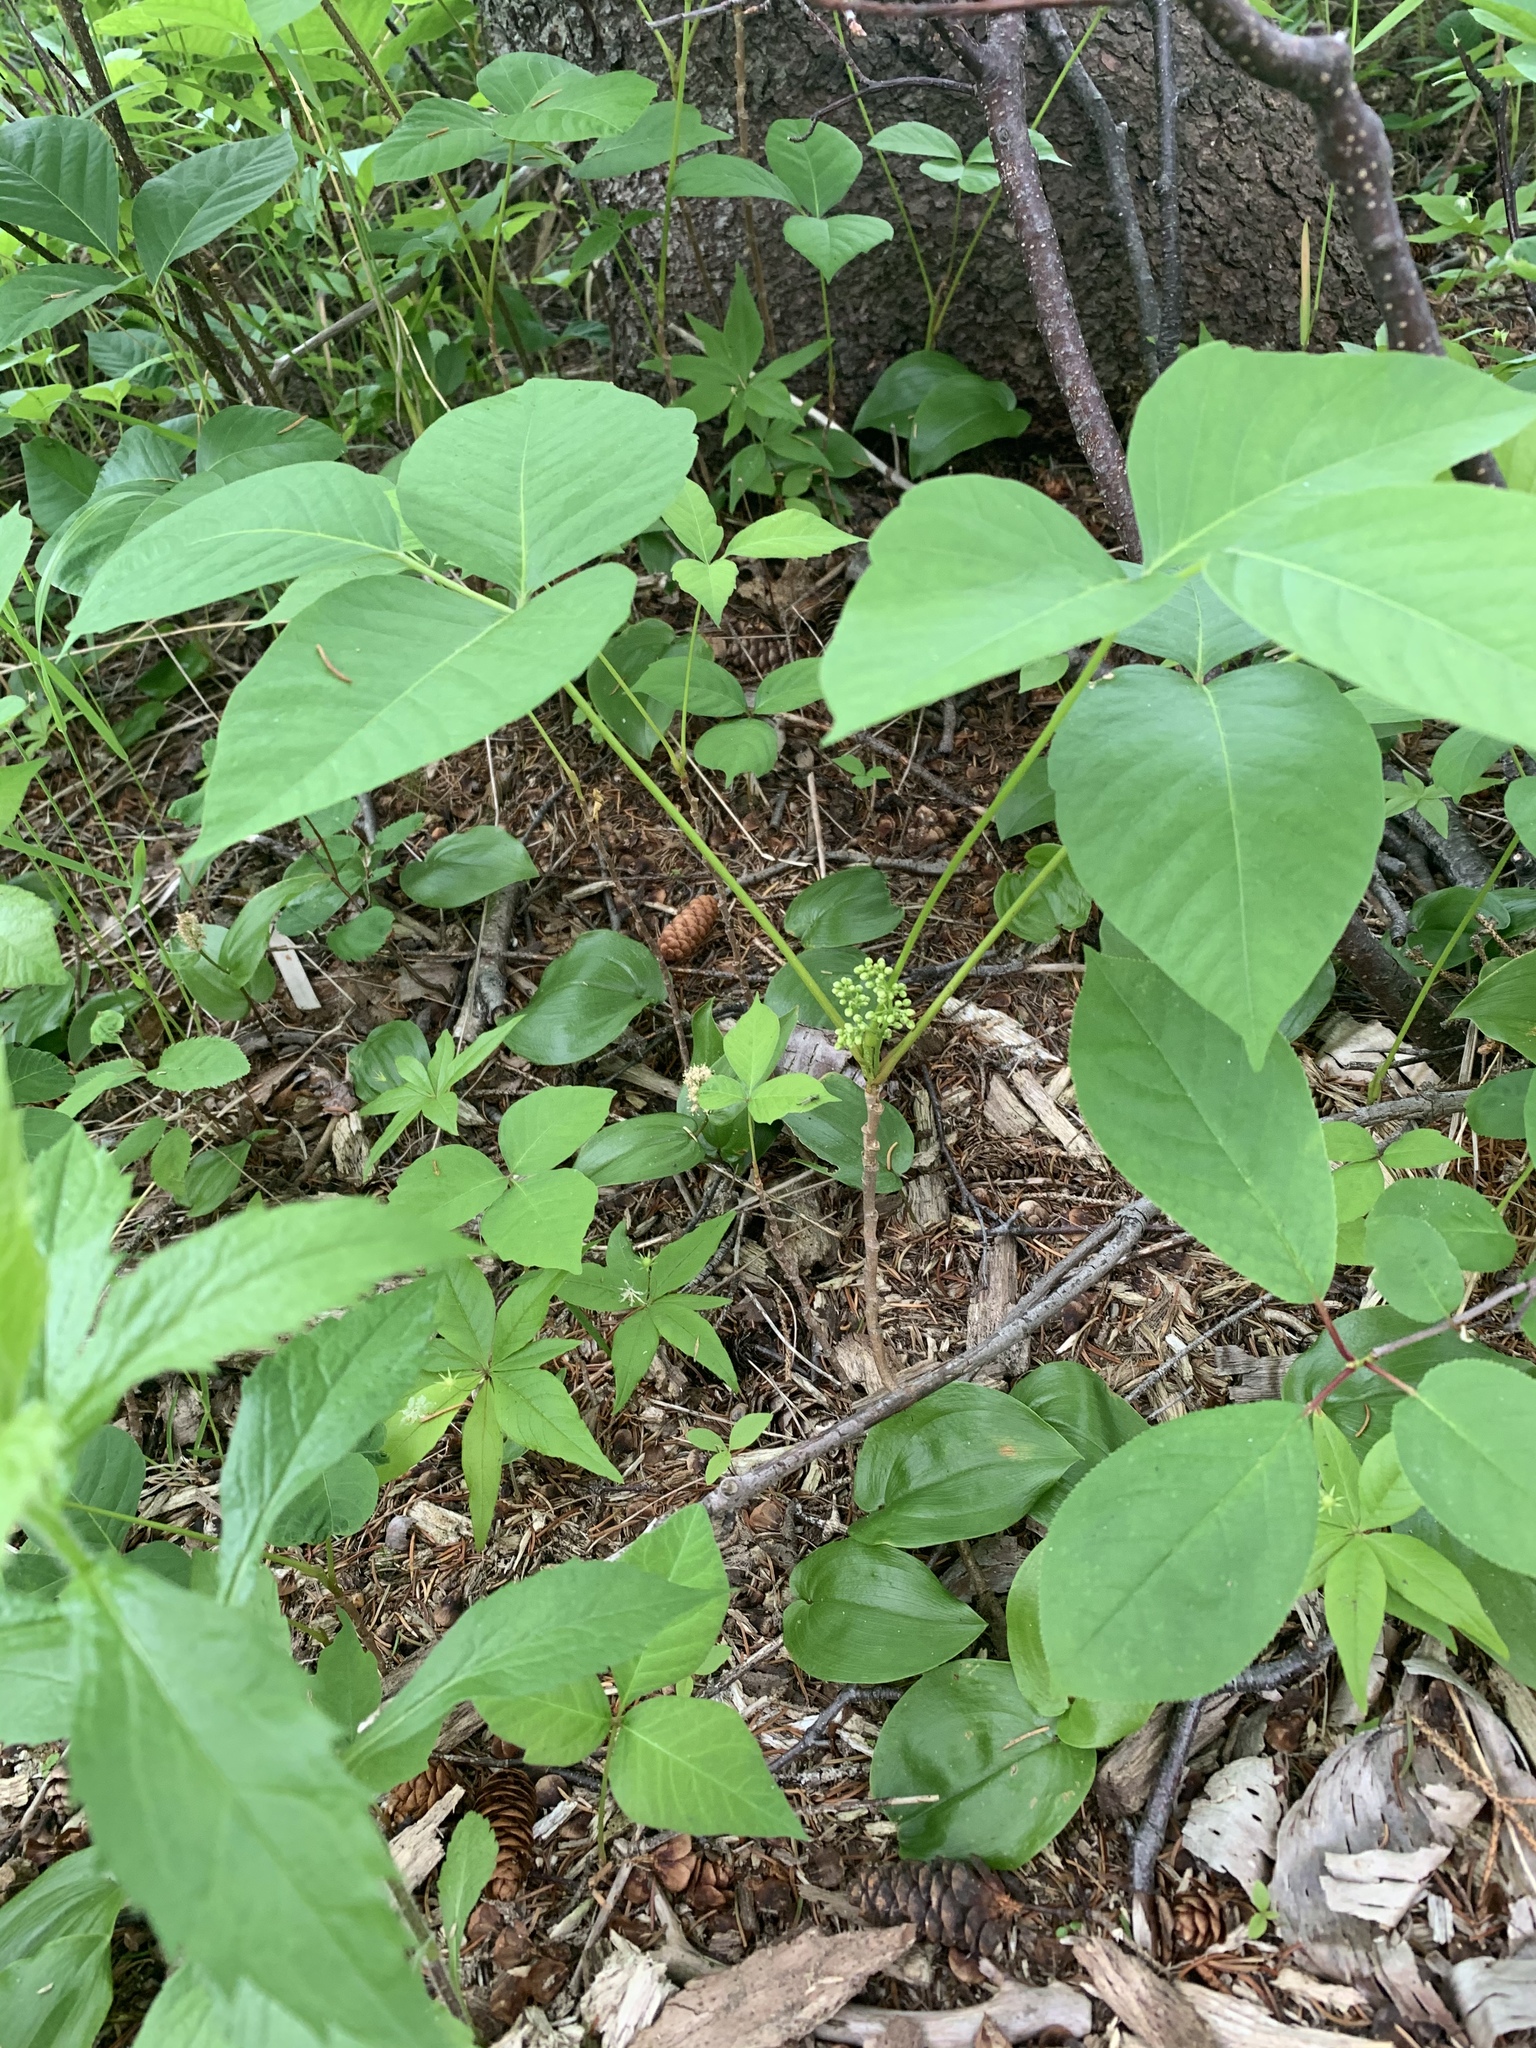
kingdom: Plantae
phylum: Tracheophyta
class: Magnoliopsida
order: Sapindales
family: Anacardiaceae
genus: Toxicodendron
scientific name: Toxicodendron rydbergii
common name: Rydberg's poison-ivy
